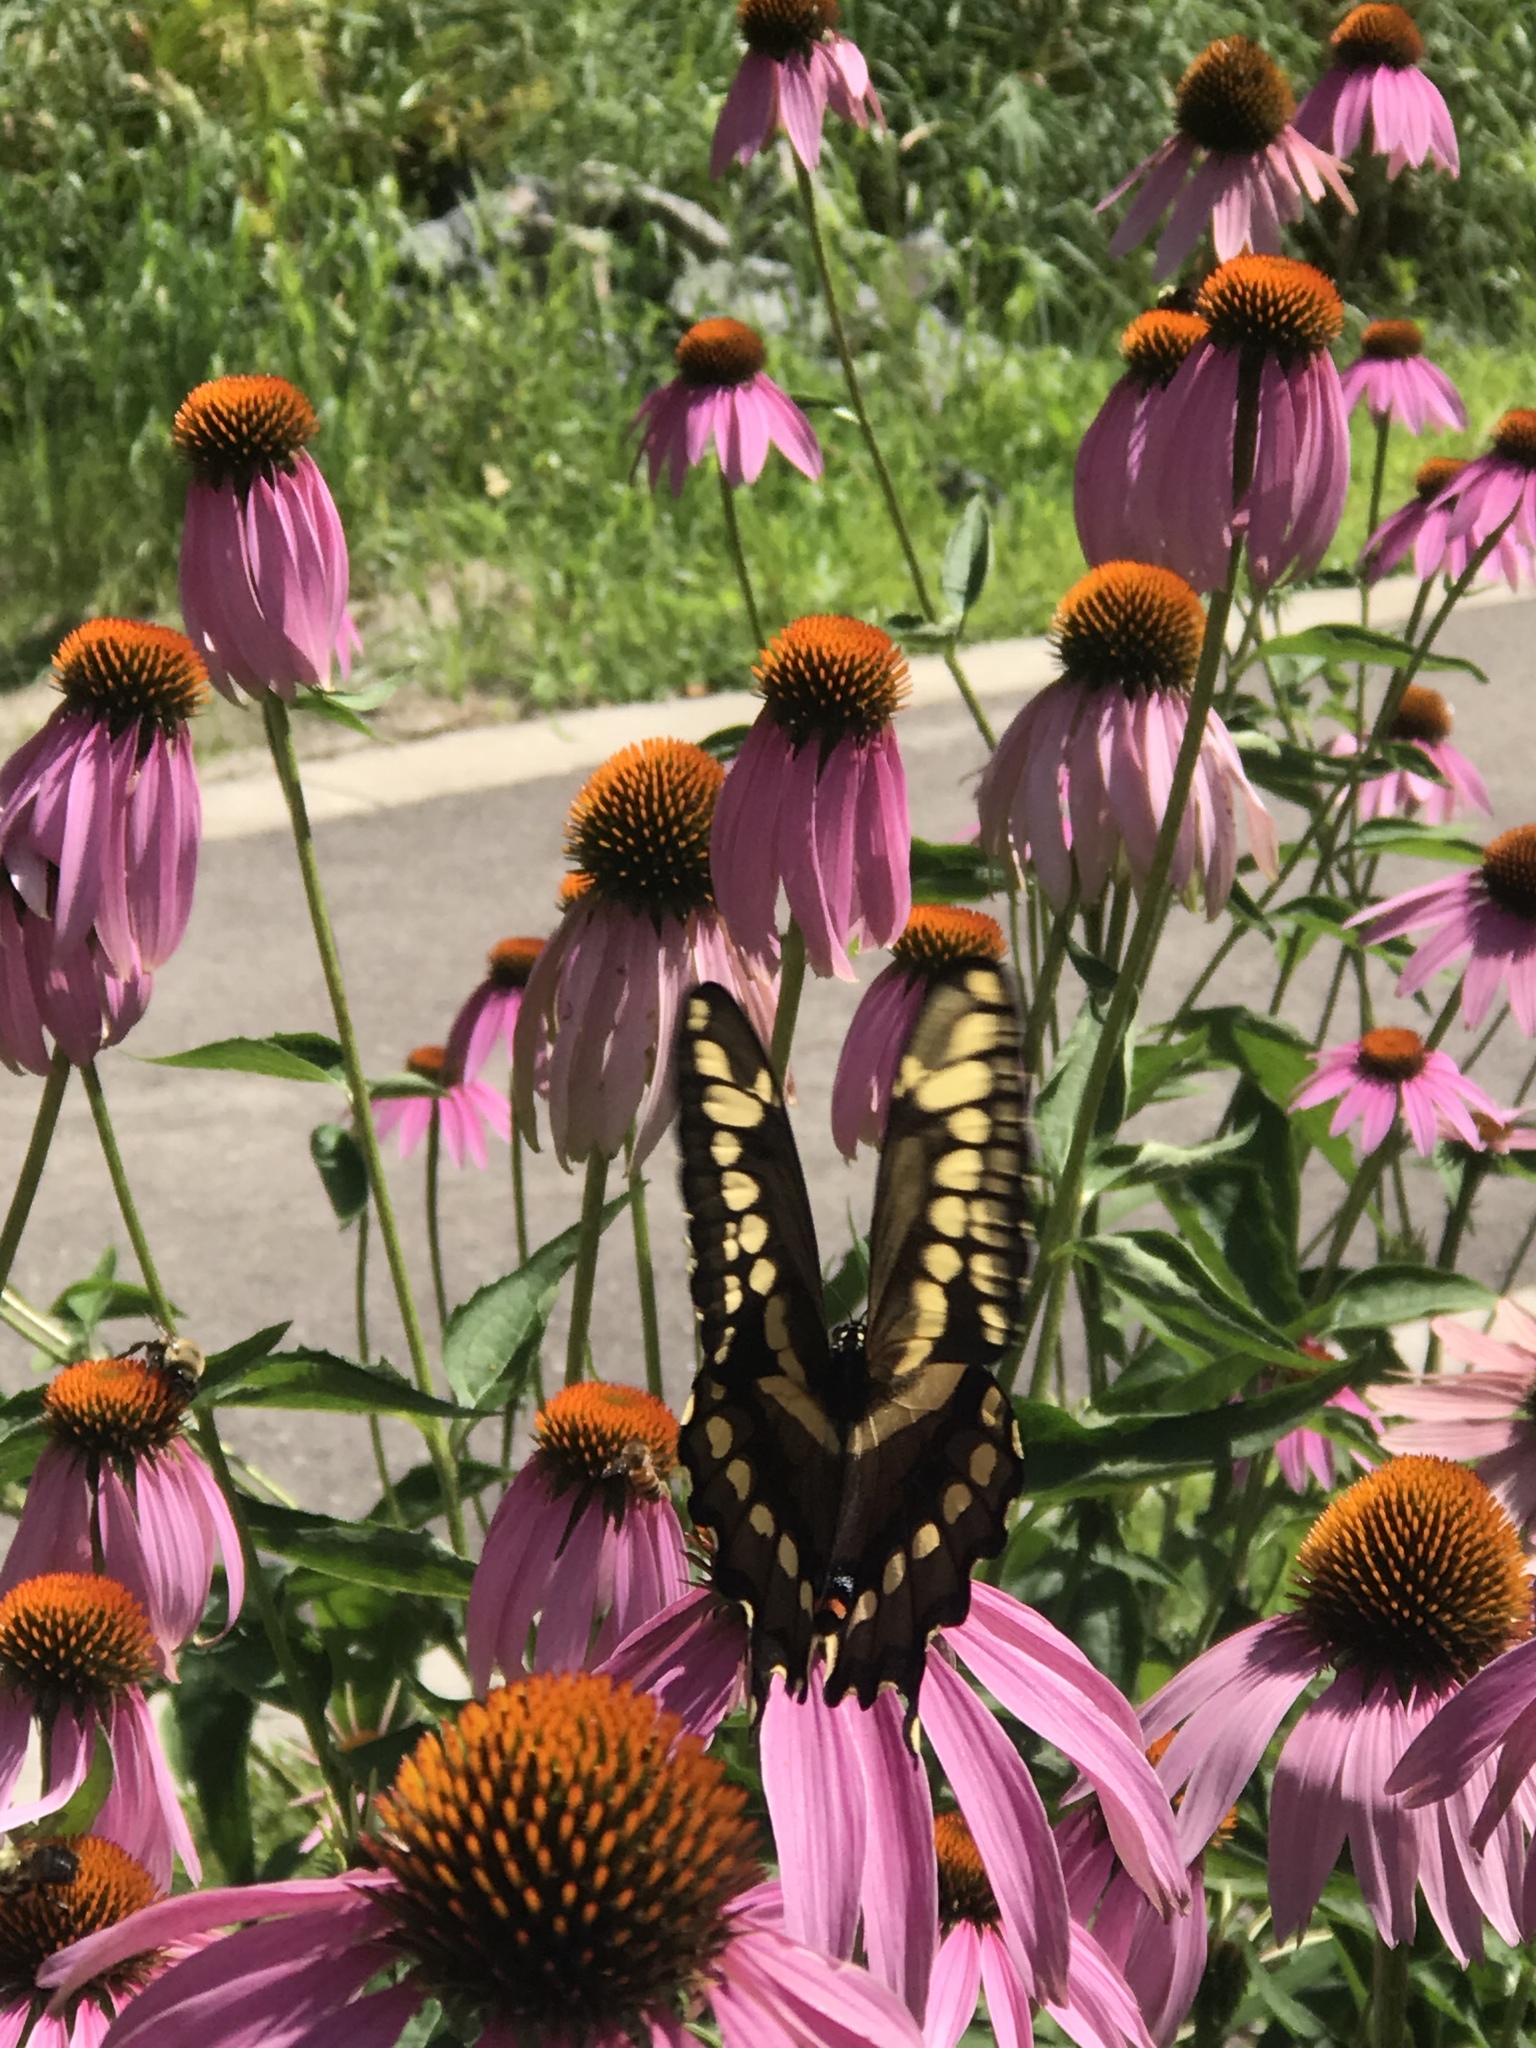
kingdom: Animalia
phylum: Arthropoda
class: Insecta
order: Lepidoptera
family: Papilionidae
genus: Papilio
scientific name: Papilio cresphontes
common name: Giant swallowtail
